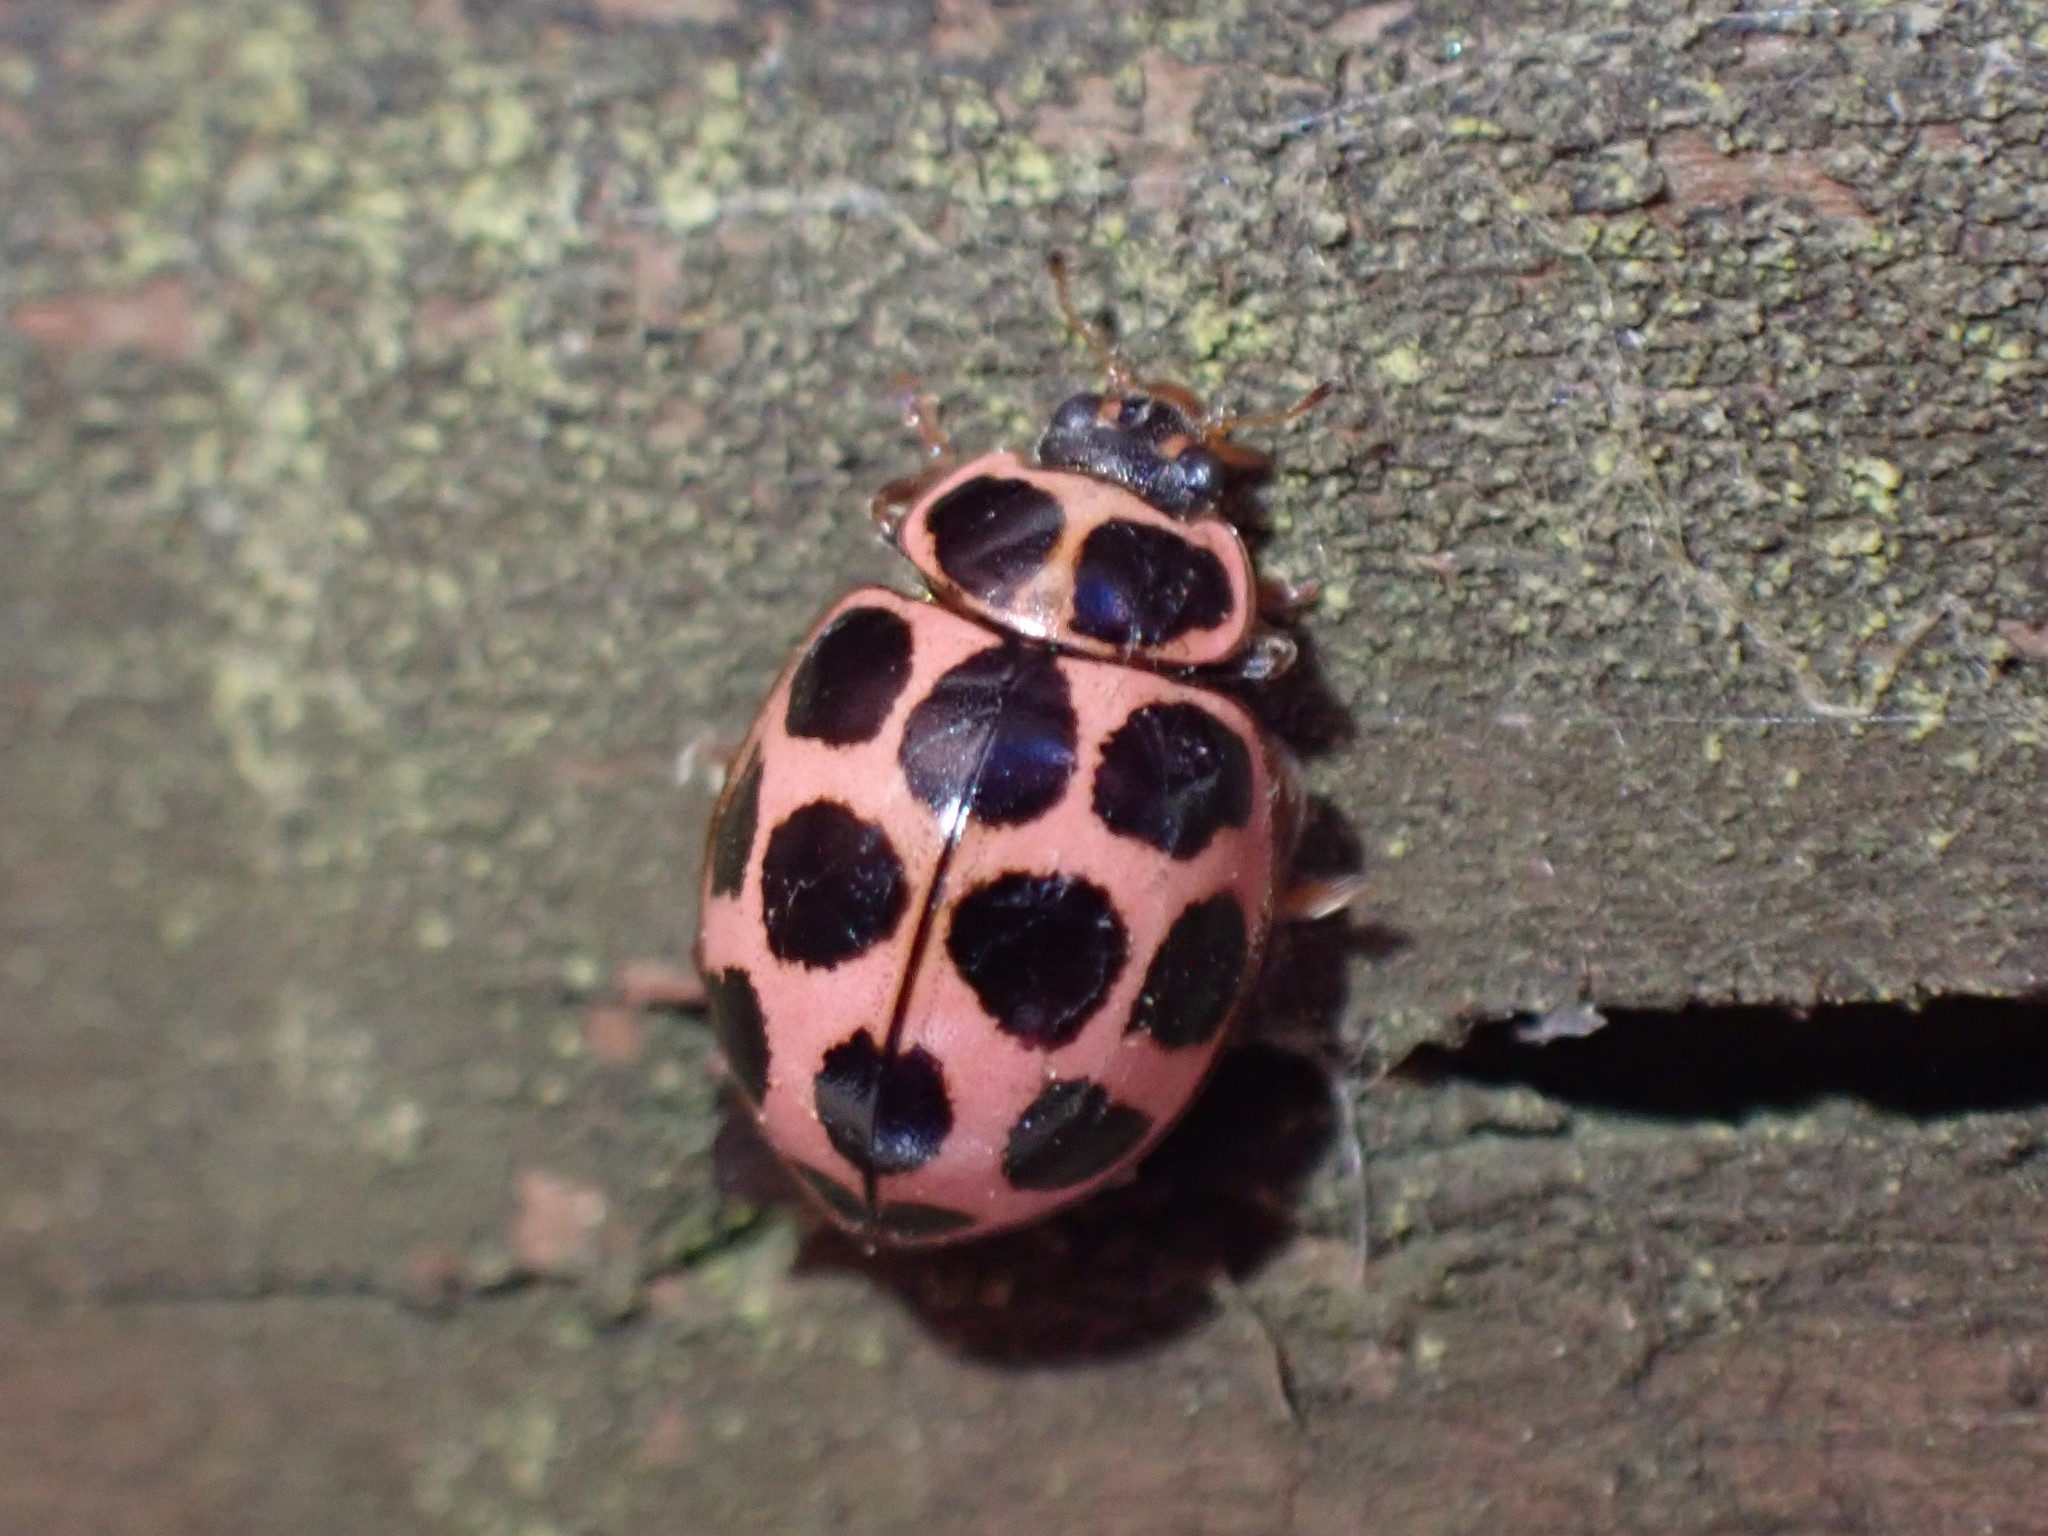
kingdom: Animalia
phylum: Arthropoda
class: Insecta
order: Coleoptera
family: Coccinellidae
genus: Calvia
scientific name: Calvia quatuordecimguttata
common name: Cream-spot ladybird
